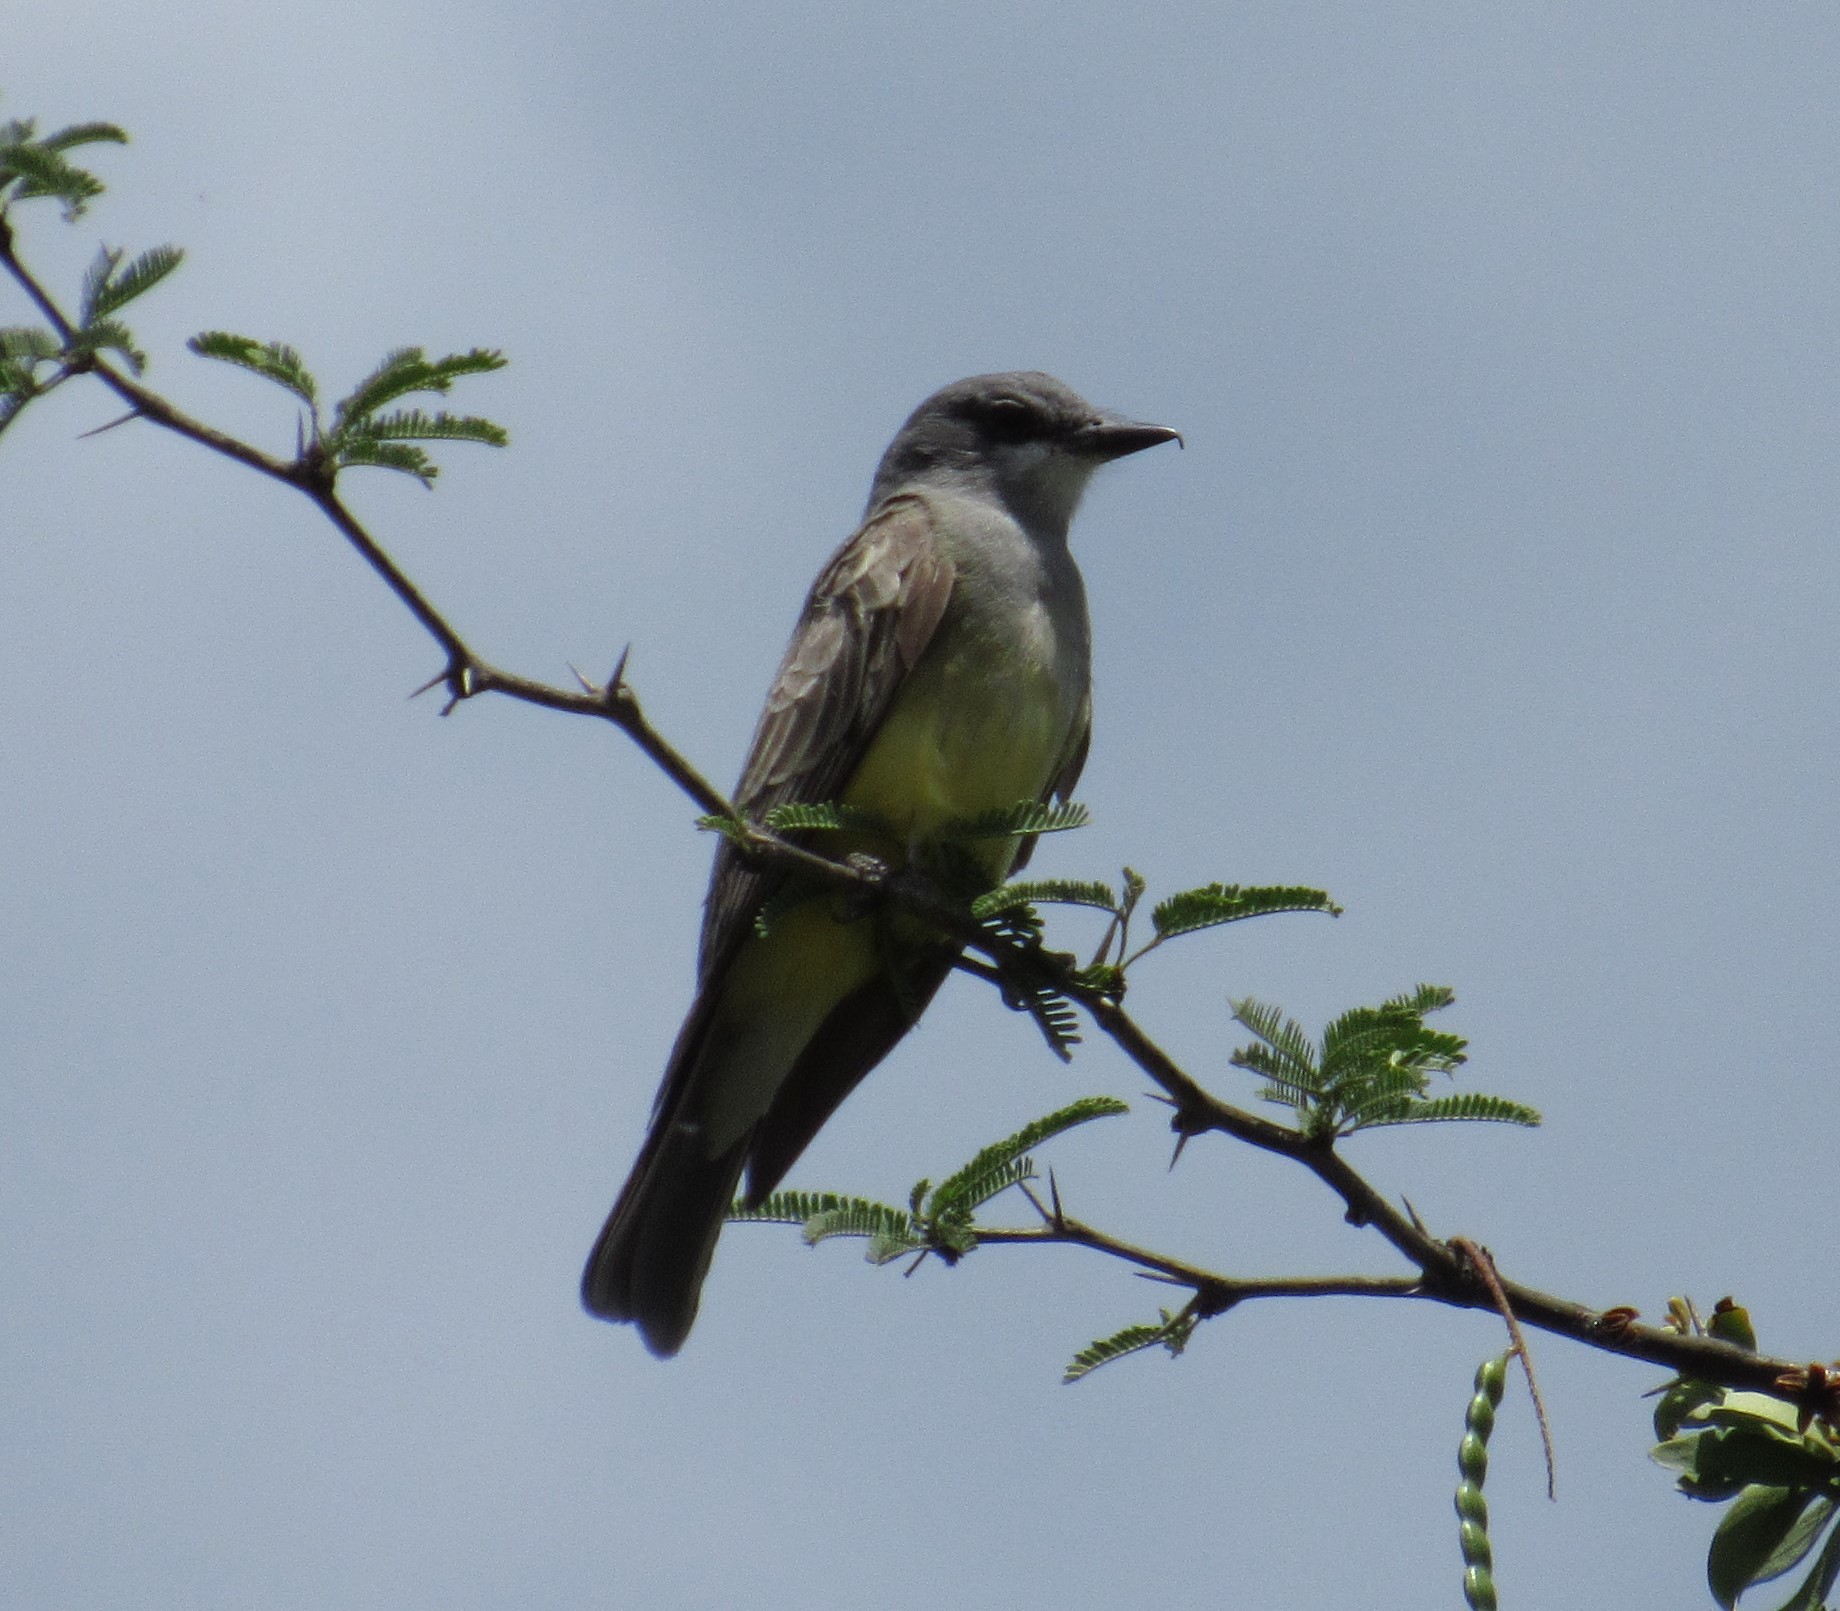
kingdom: Animalia
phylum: Chordata
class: Aves
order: Passeriformes
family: Tyrannidae
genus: Tyrannus
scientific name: Tyrannus vociferans
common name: Cassin's kingbird
